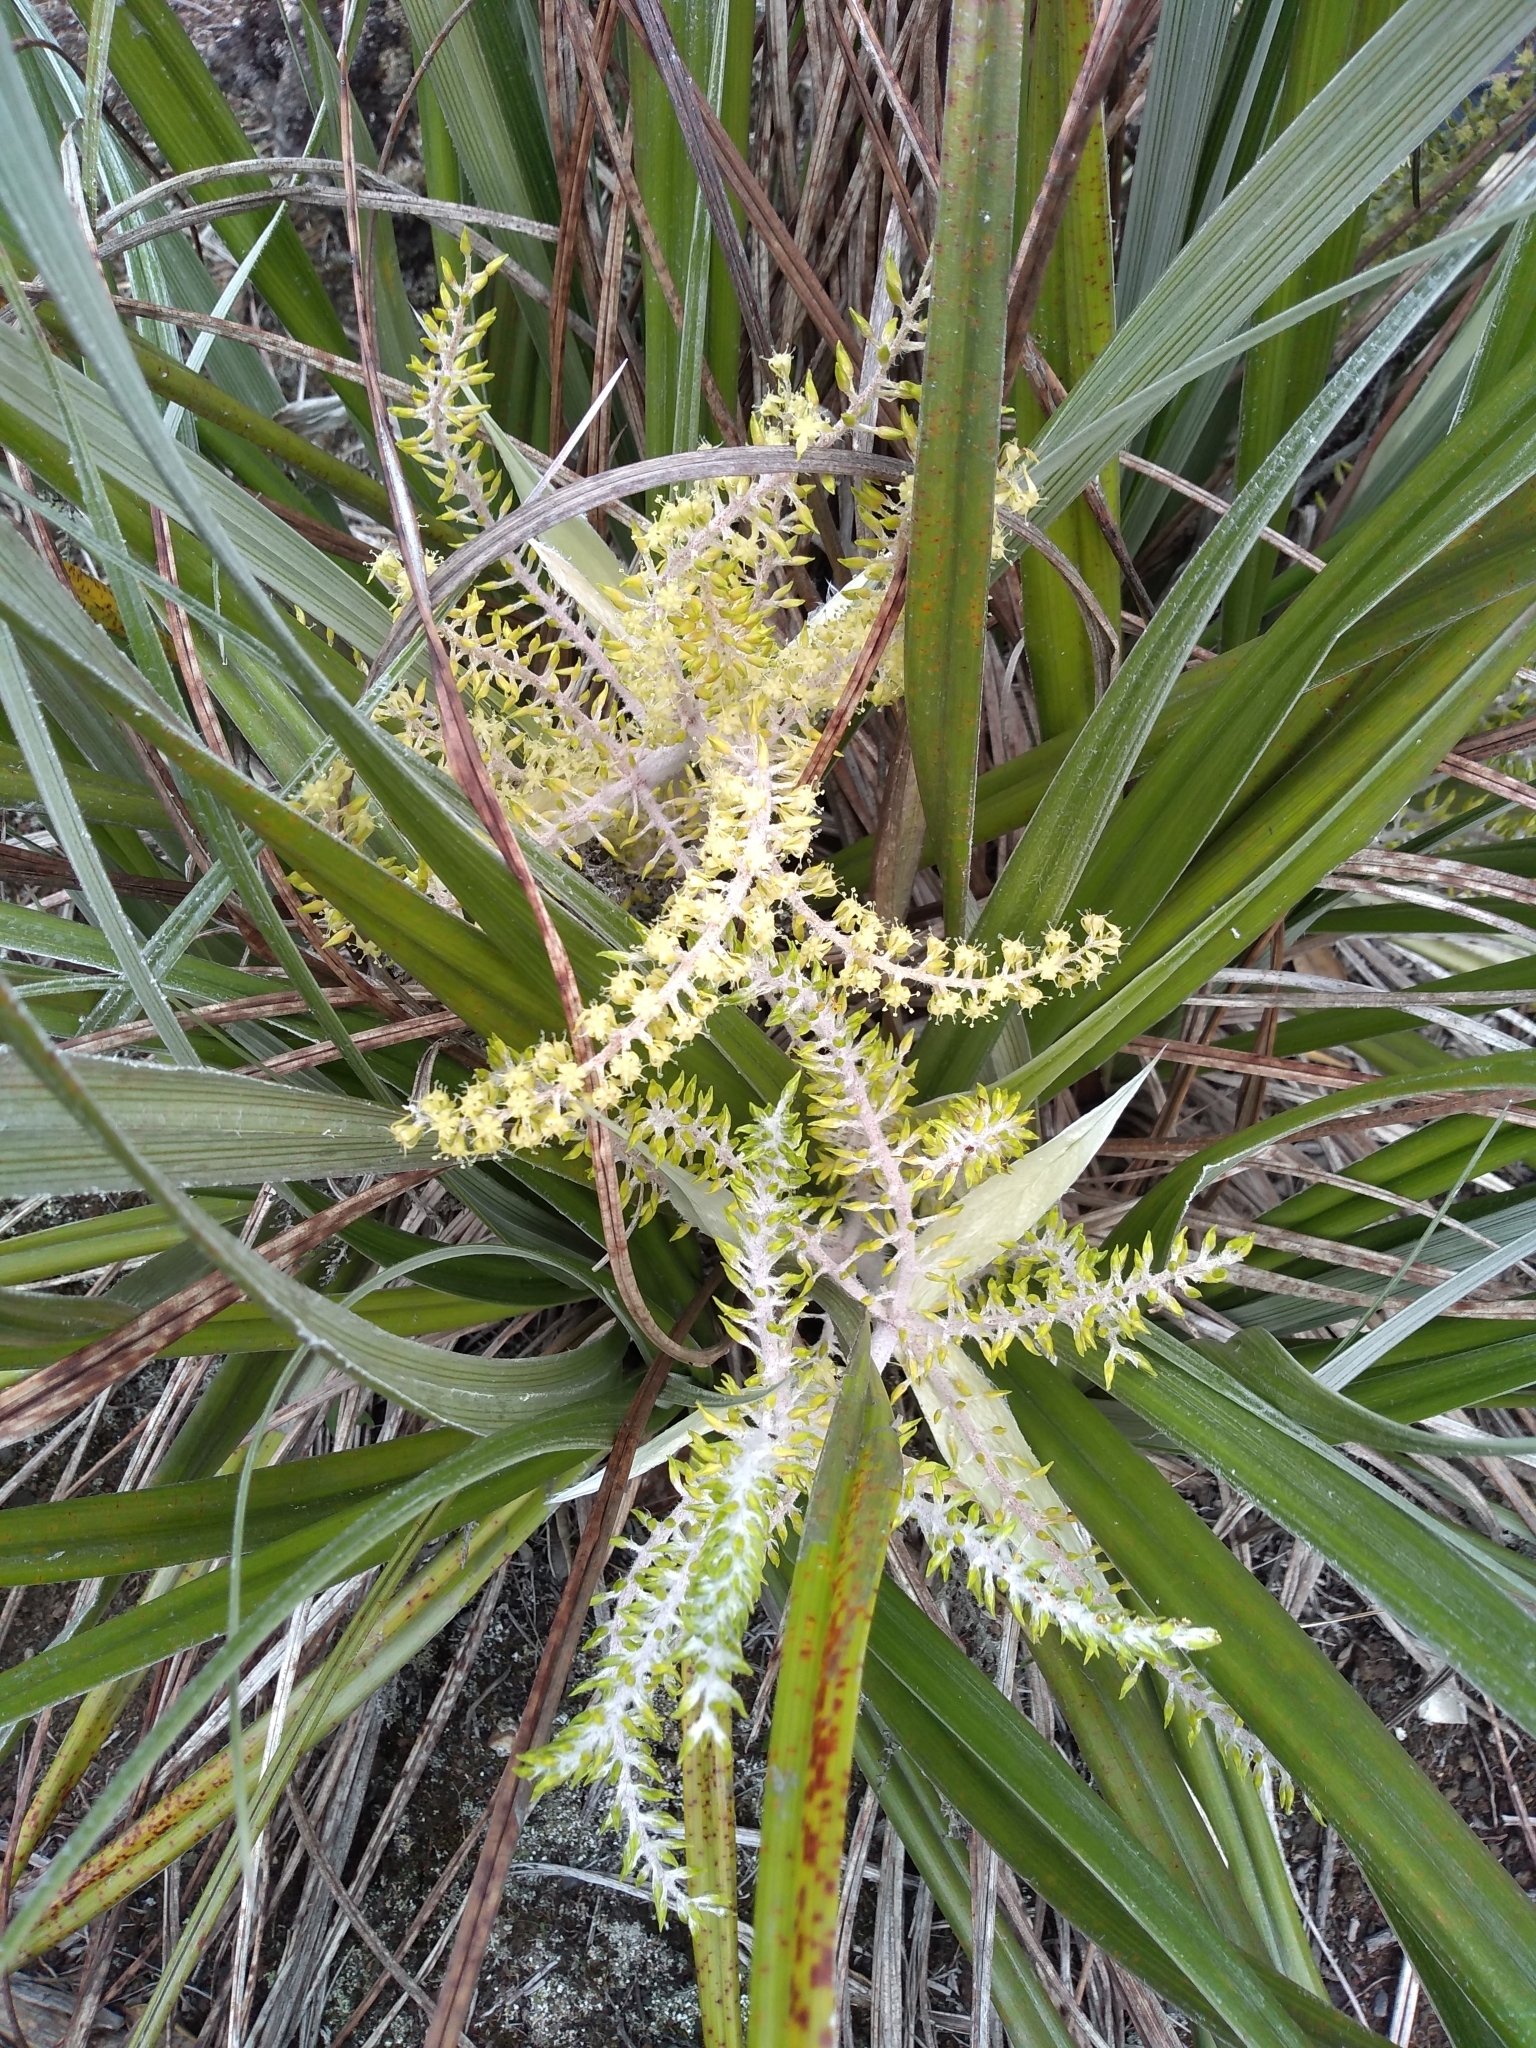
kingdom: Plantae
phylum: Tracheophyta
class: Liliopsida
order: Asparagales
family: Asteliaceae
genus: Astelia
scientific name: Astelia banksii
